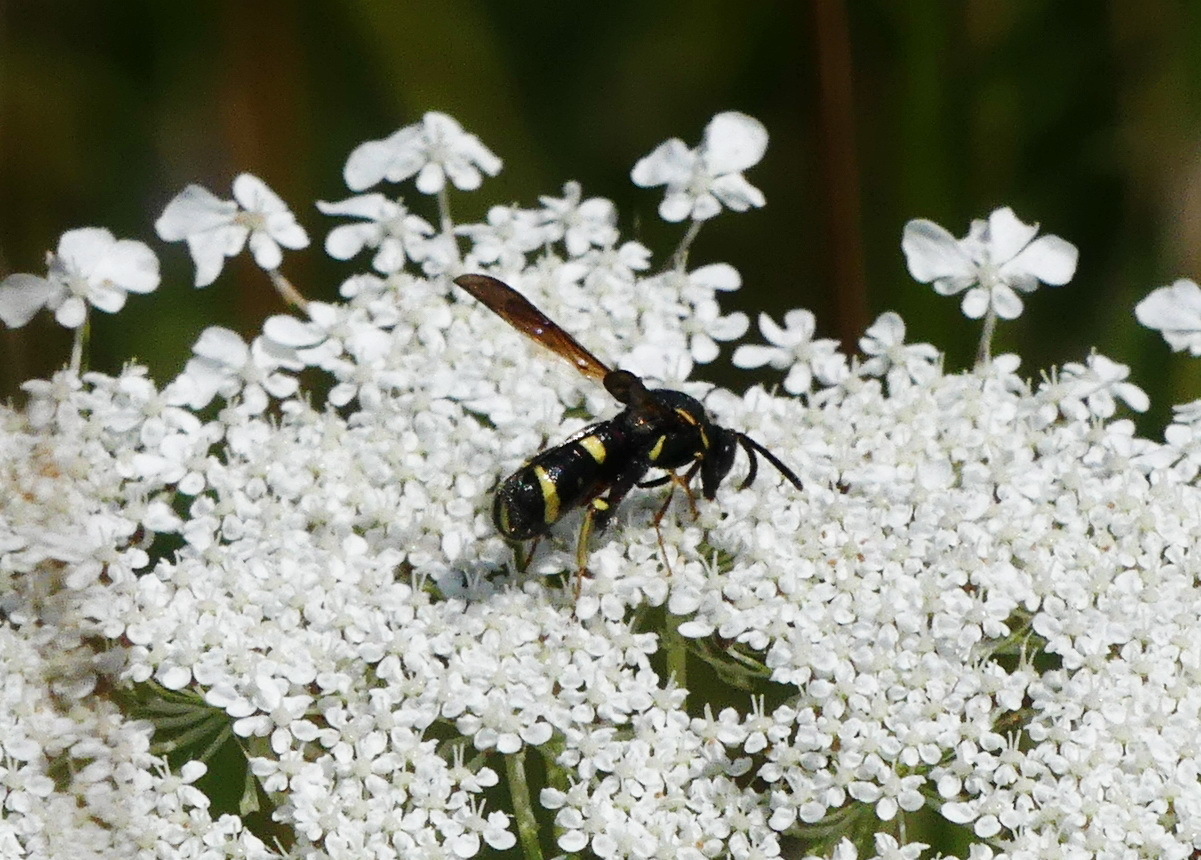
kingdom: Animalia
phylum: Arthropoda
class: Insecta
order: Hymenoptera
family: Leucospidae
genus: Leucospis
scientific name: Leucospis affinis
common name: Wasp
